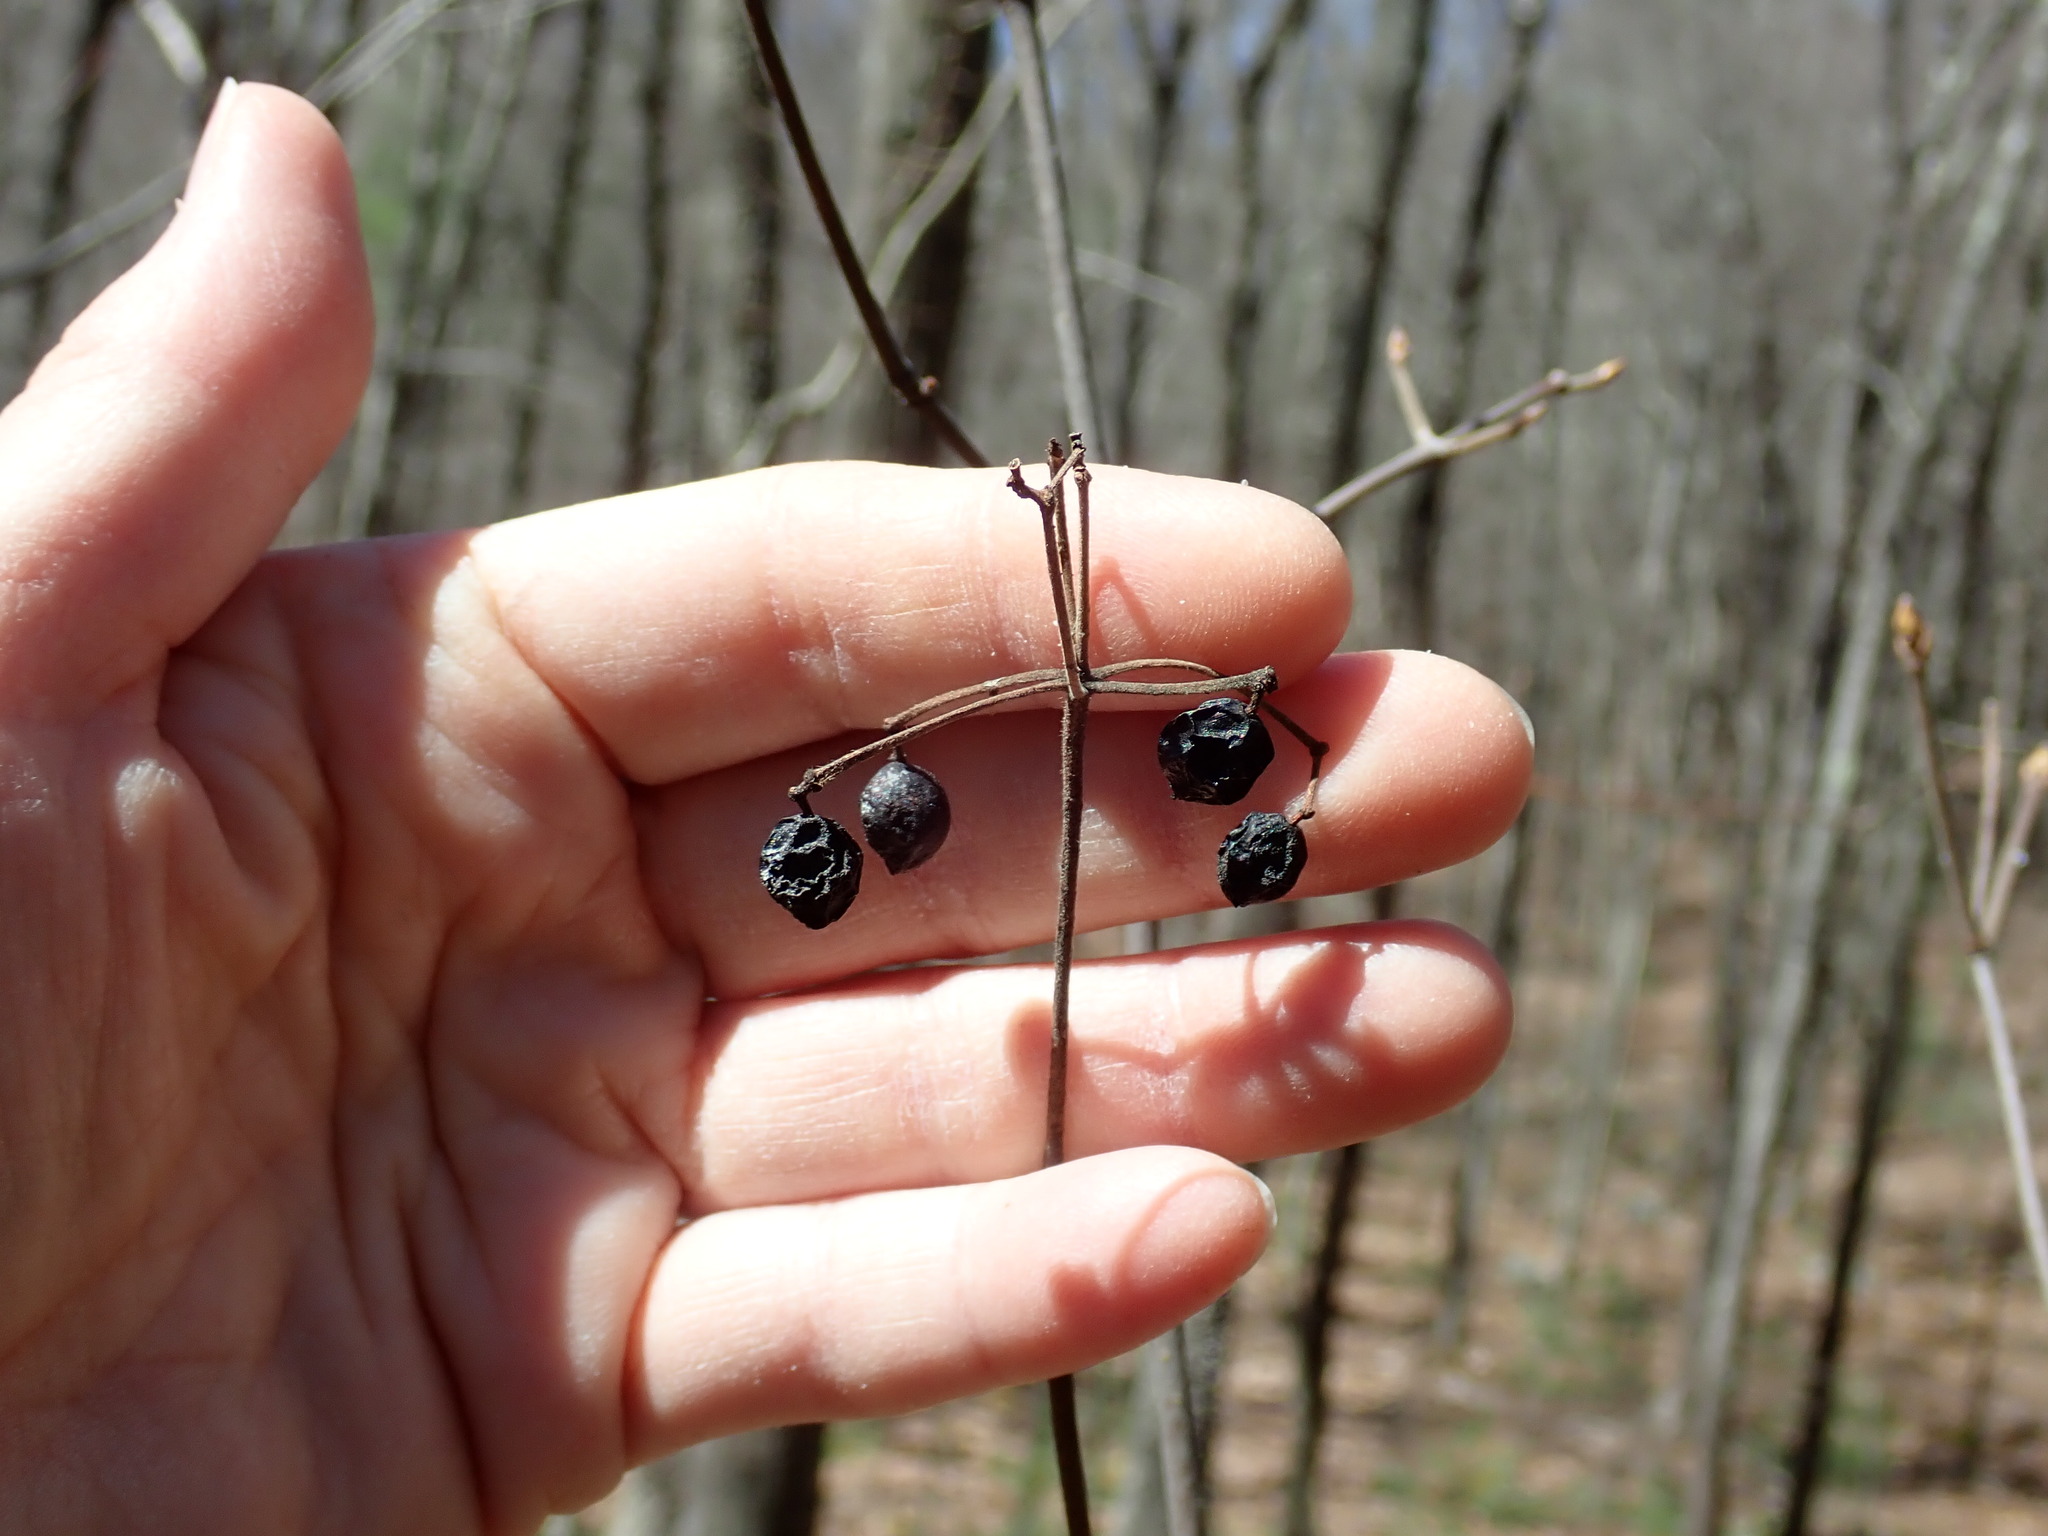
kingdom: Plantae
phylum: Tracheophyta
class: Magnoliopsida
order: Dipsacales
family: Viburnaceae
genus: Viburnum
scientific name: Viburnum acerifolium
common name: Dockmackie
